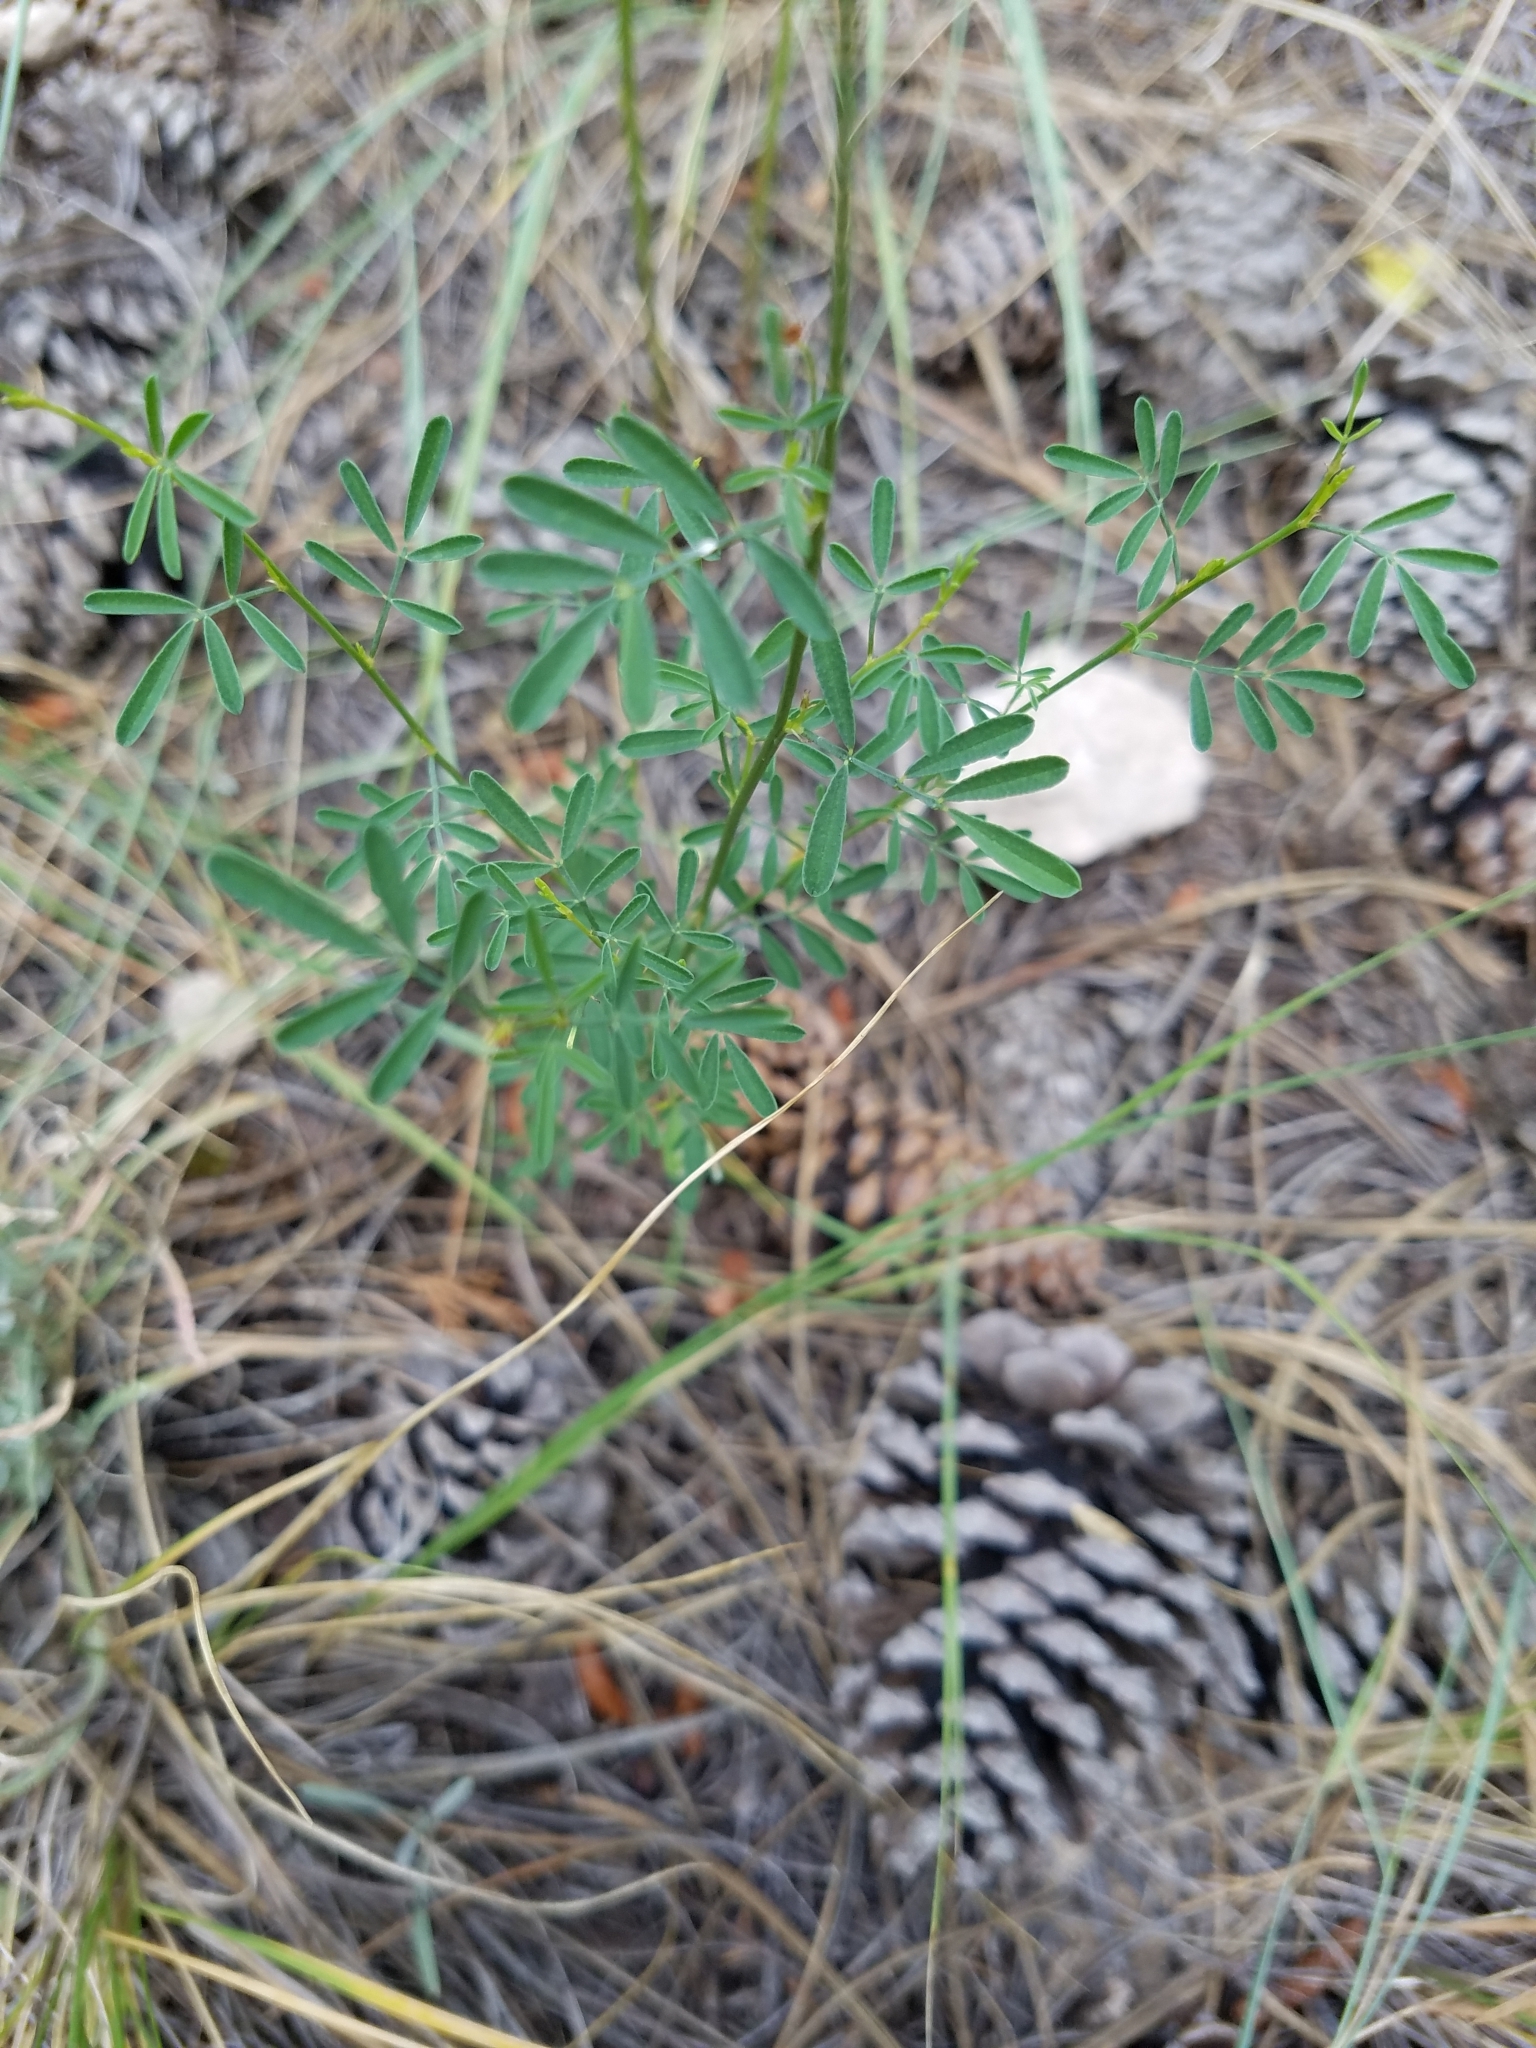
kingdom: Plantae
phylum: Tracheophyta
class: Magnoliopsida
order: Fabales
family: Fabaceae
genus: Dalea
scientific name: Dalea candida
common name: White prairie-clover
